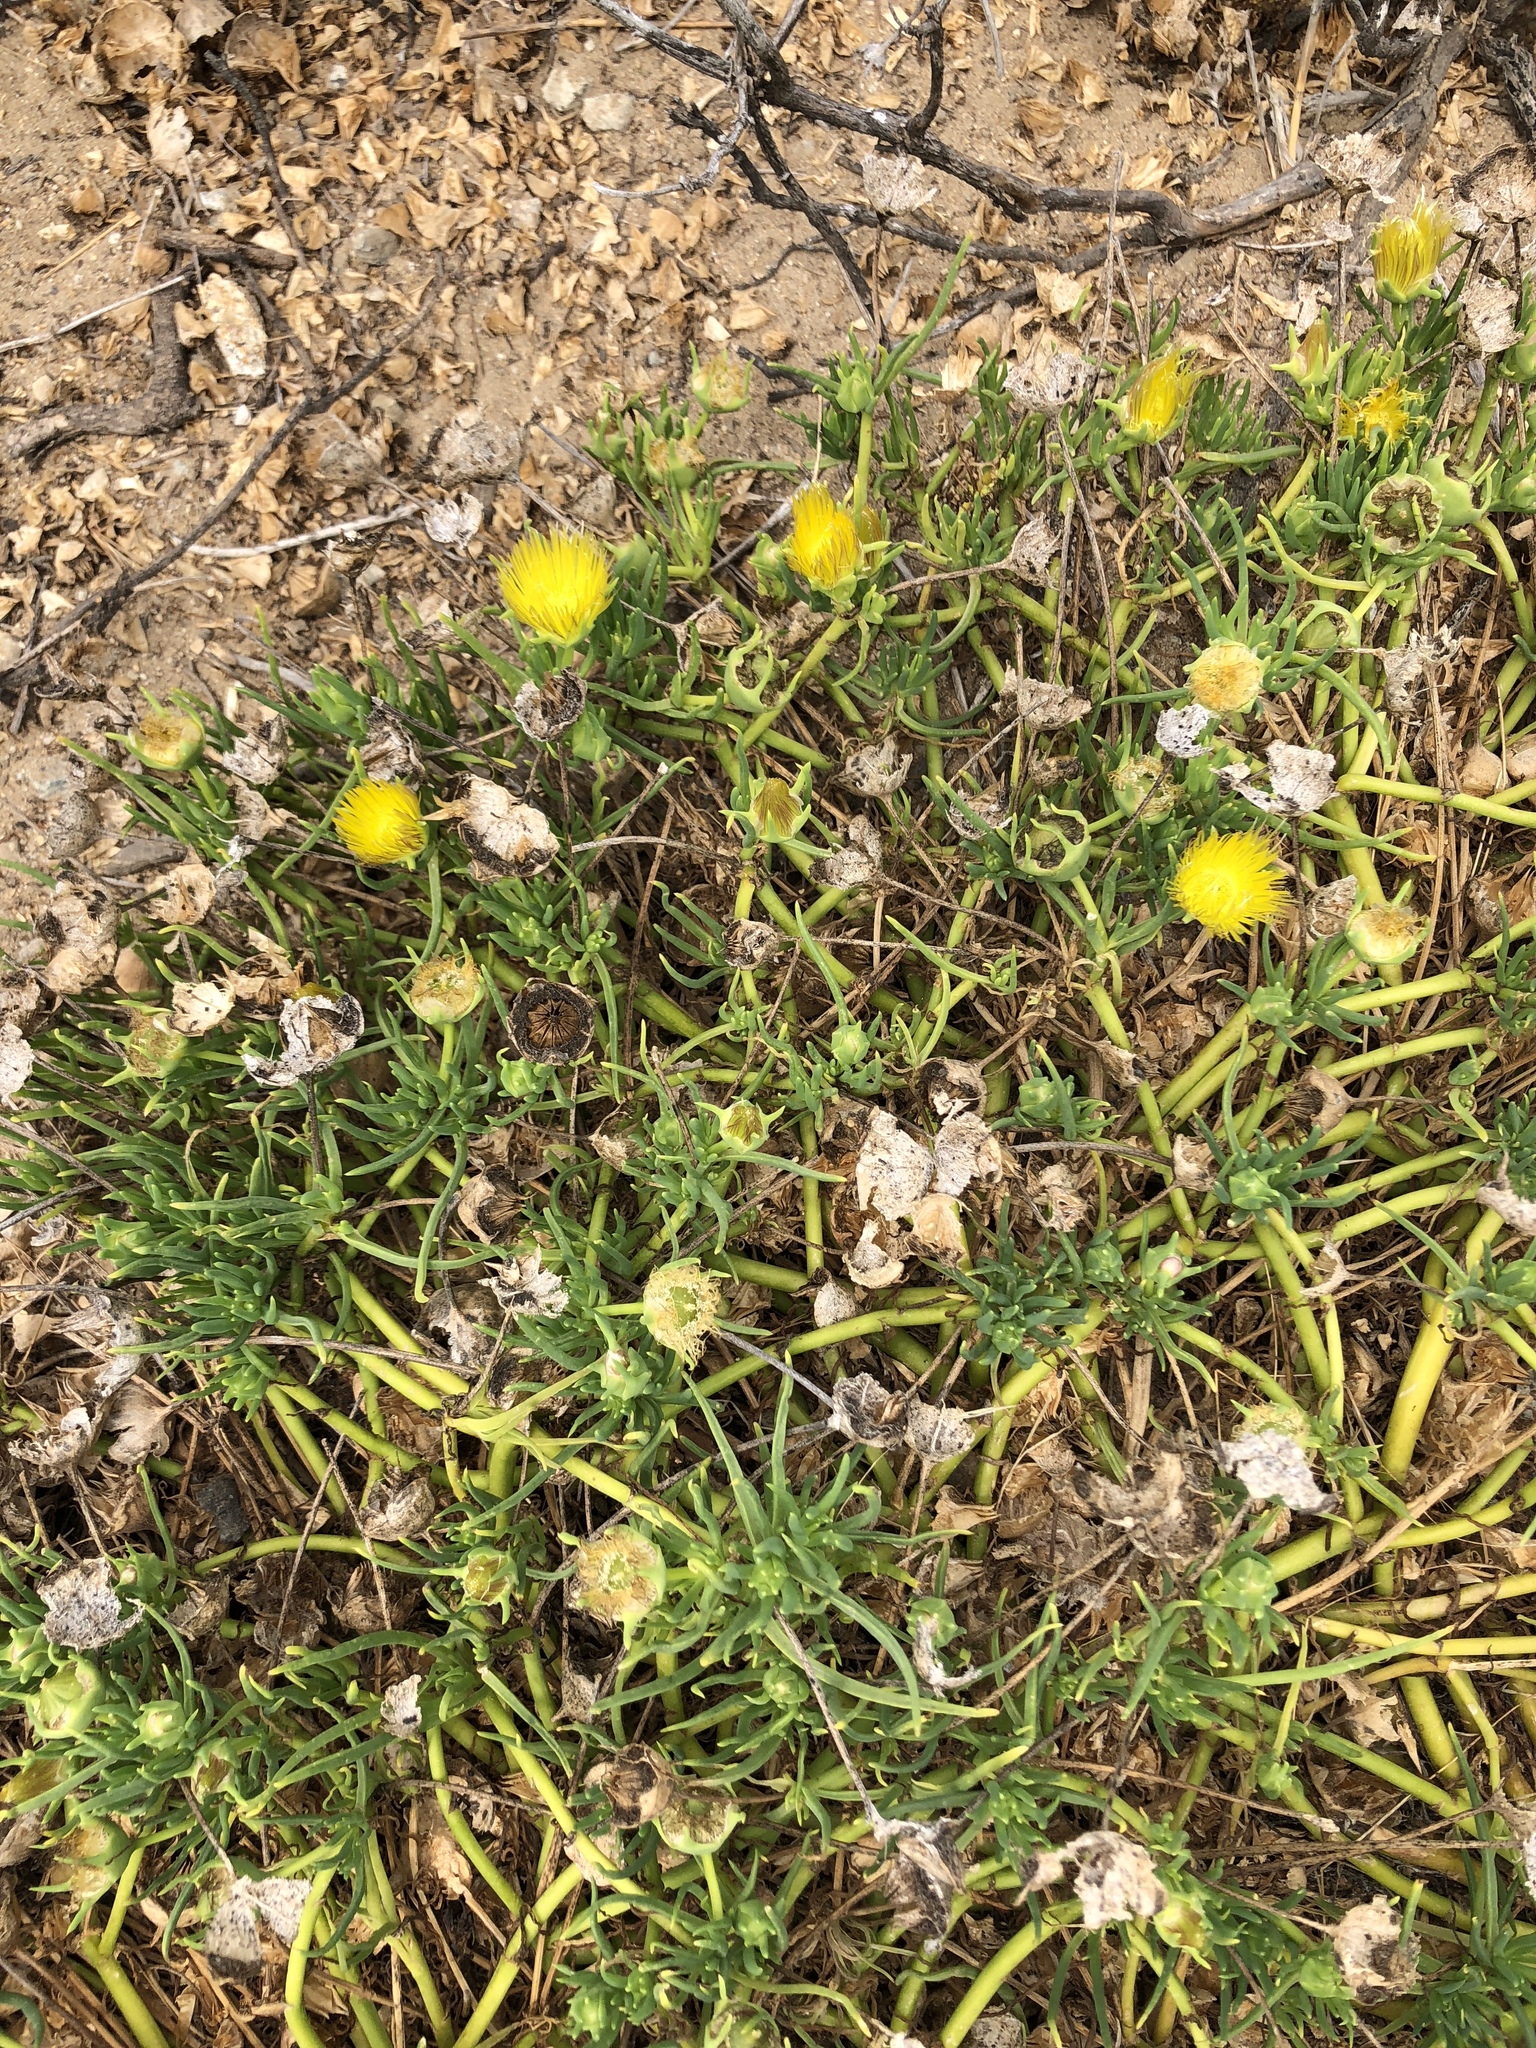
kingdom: Plantae
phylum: Tracheophyta
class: Magnoliopsida
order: Caryophyllales
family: Aizoaceae
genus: Conicosia
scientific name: Conicosia pugioniformis
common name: Narrow-leaved iceplant
